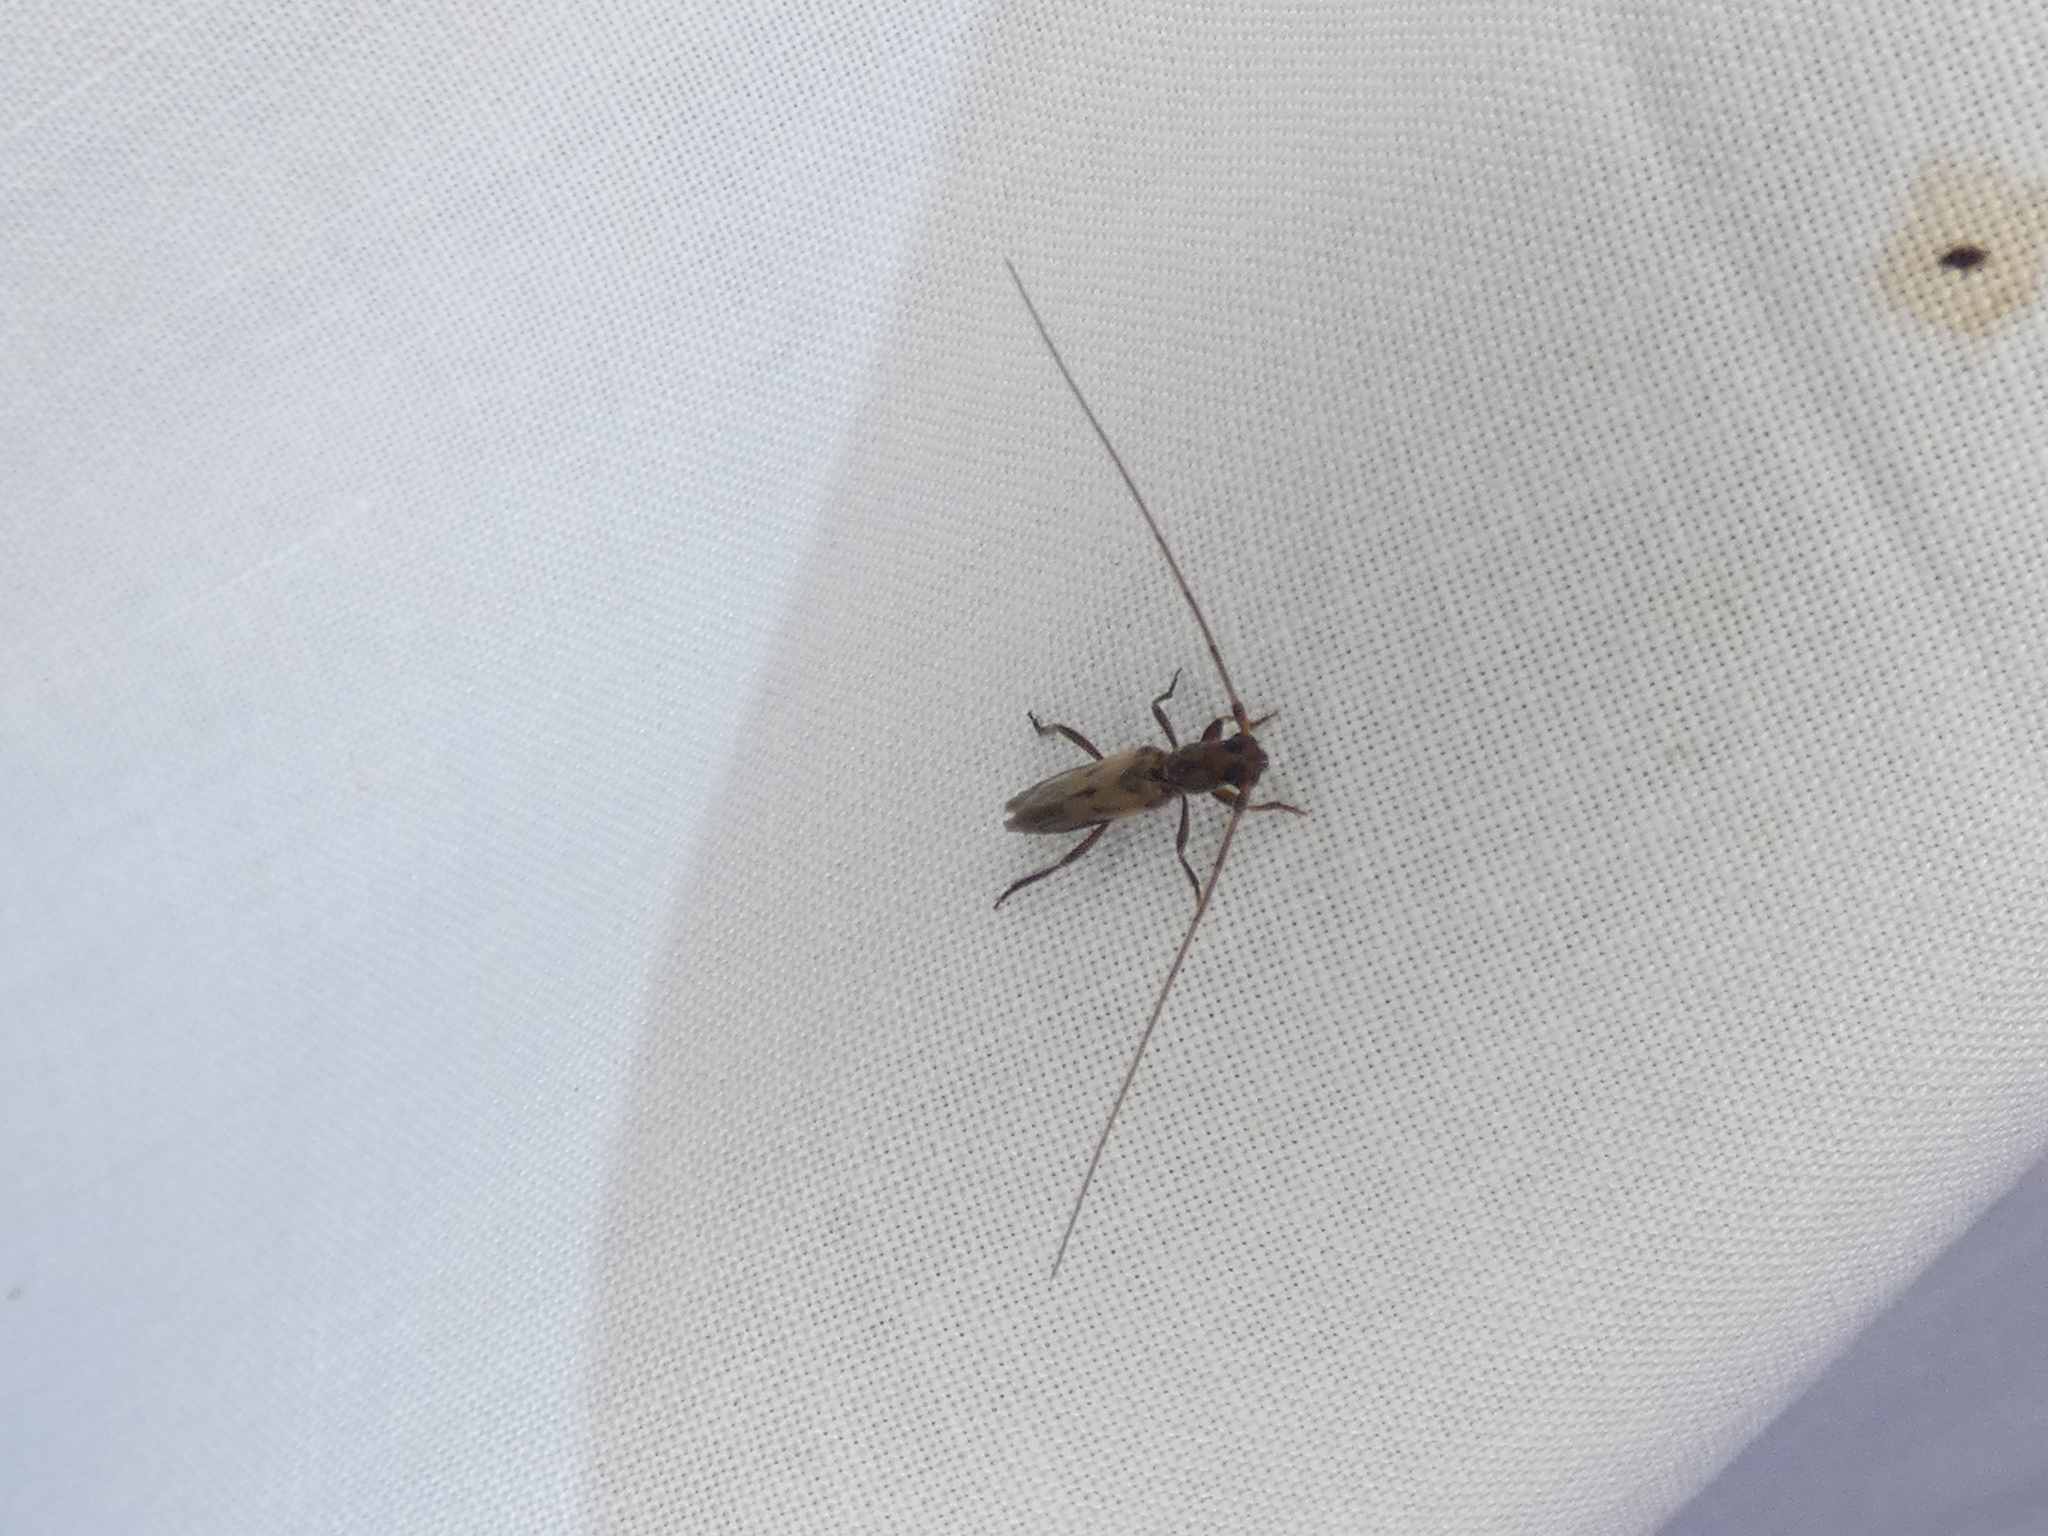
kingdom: Animalia
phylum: Arthropoda
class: Insecta
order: Coleoptera
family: Cerambycidae
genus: Methia
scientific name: Methia necydalea
